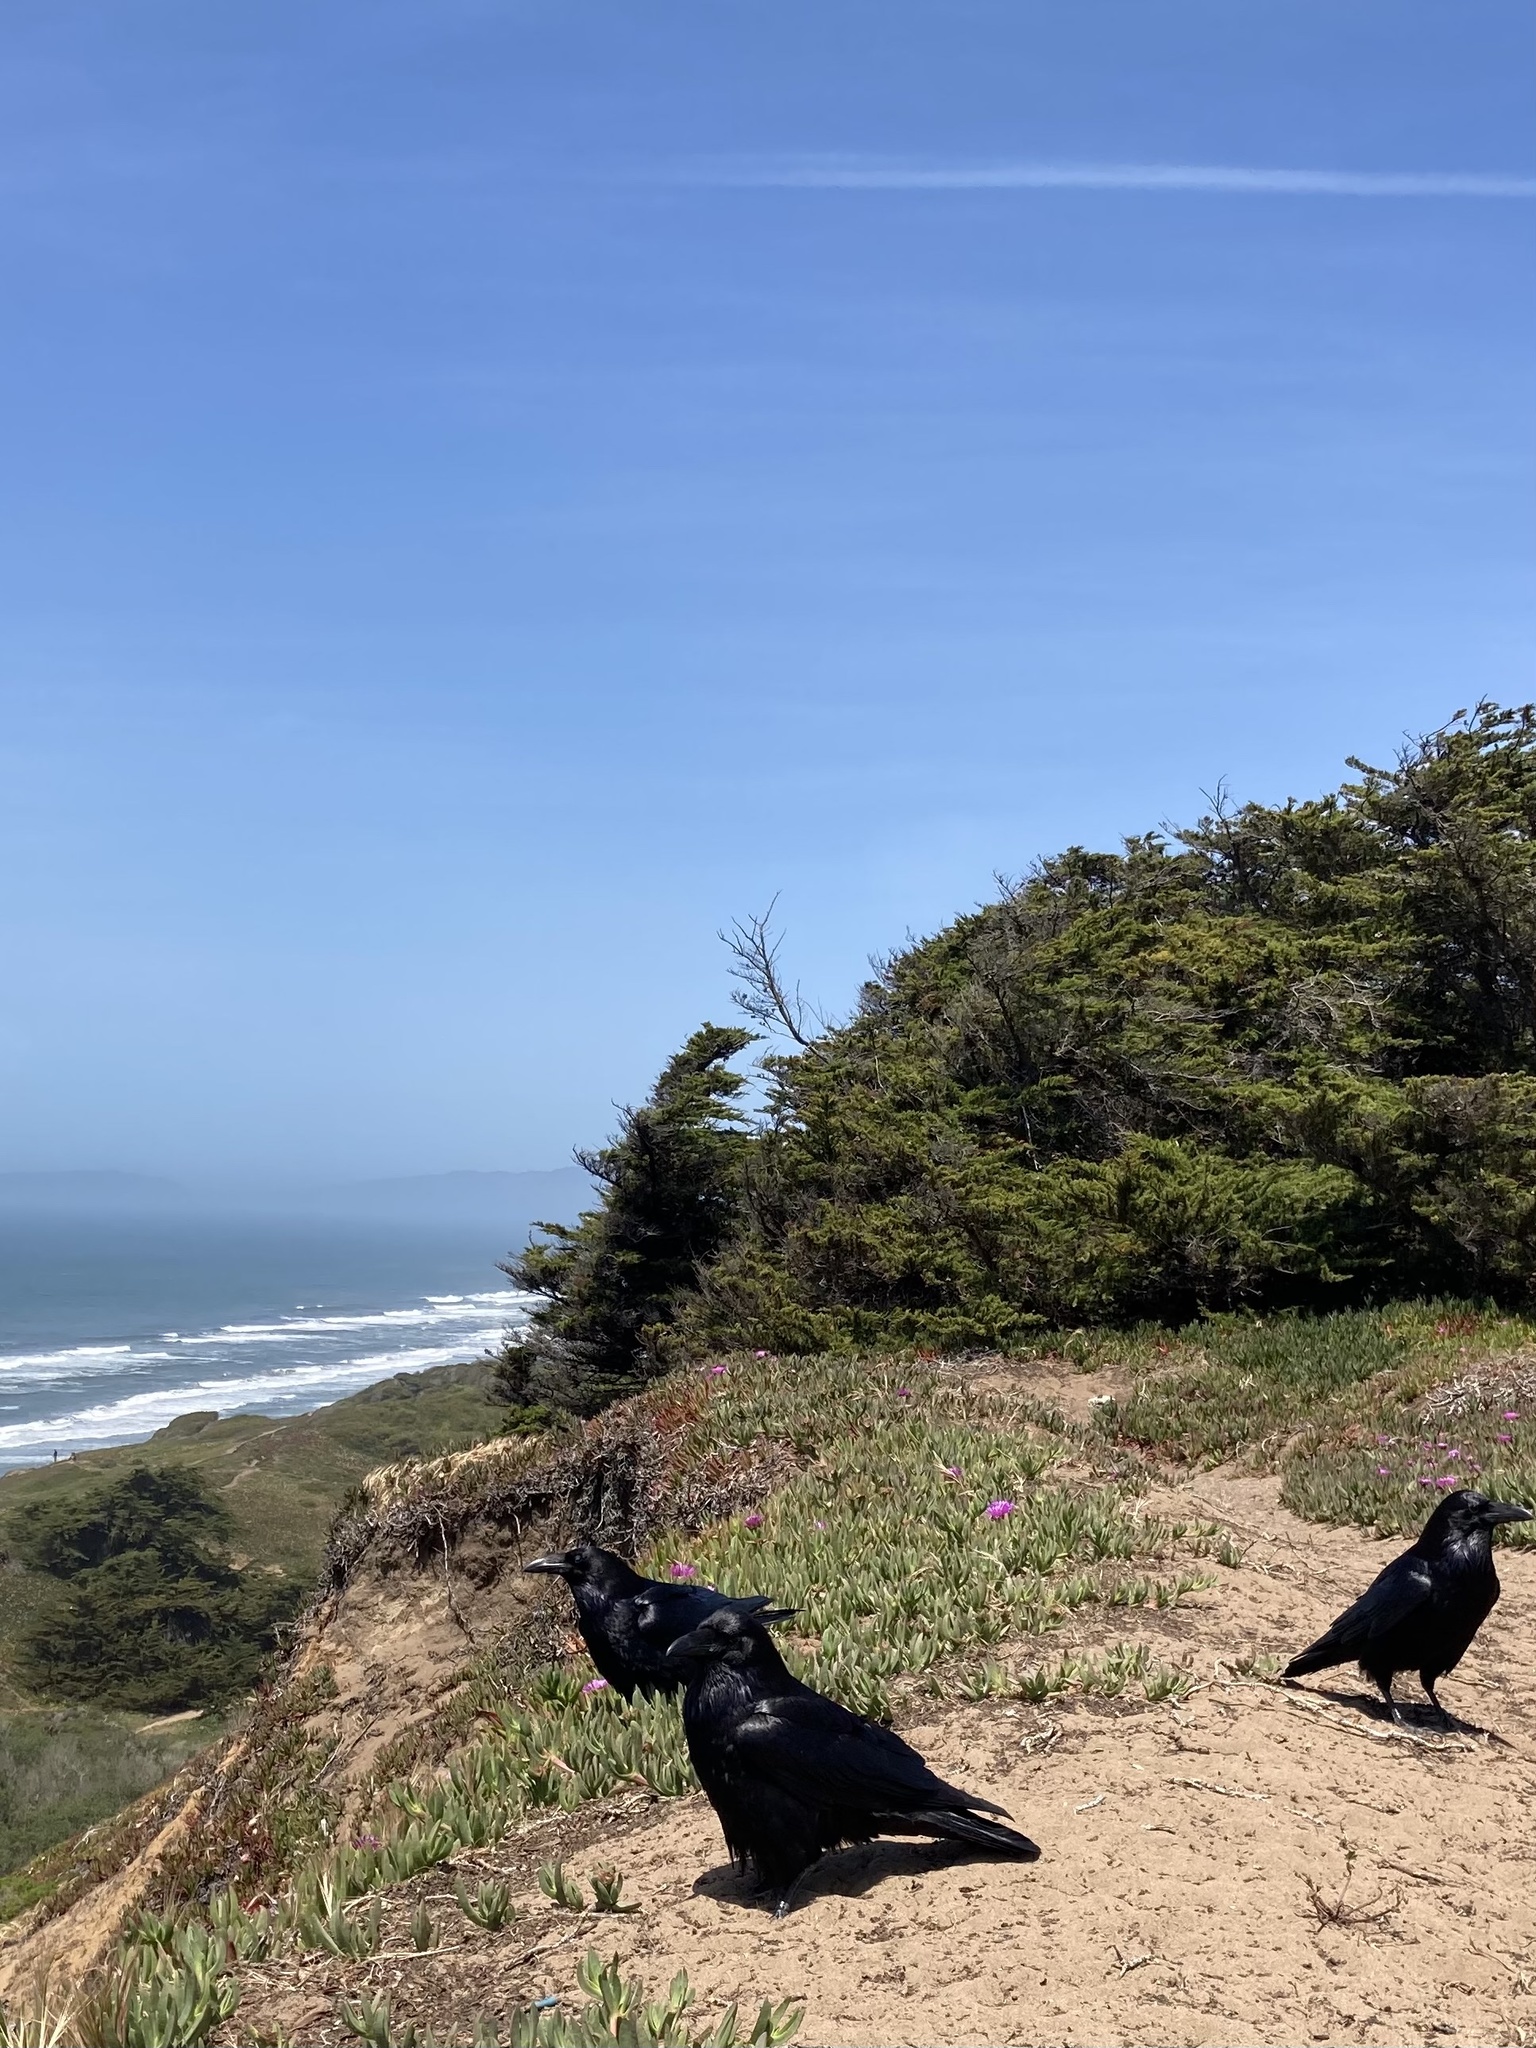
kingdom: Animalia
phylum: Chordata
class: Aves
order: Passeriformes
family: Corvidae
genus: Corvus
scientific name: Corvus corax
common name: Common raven
